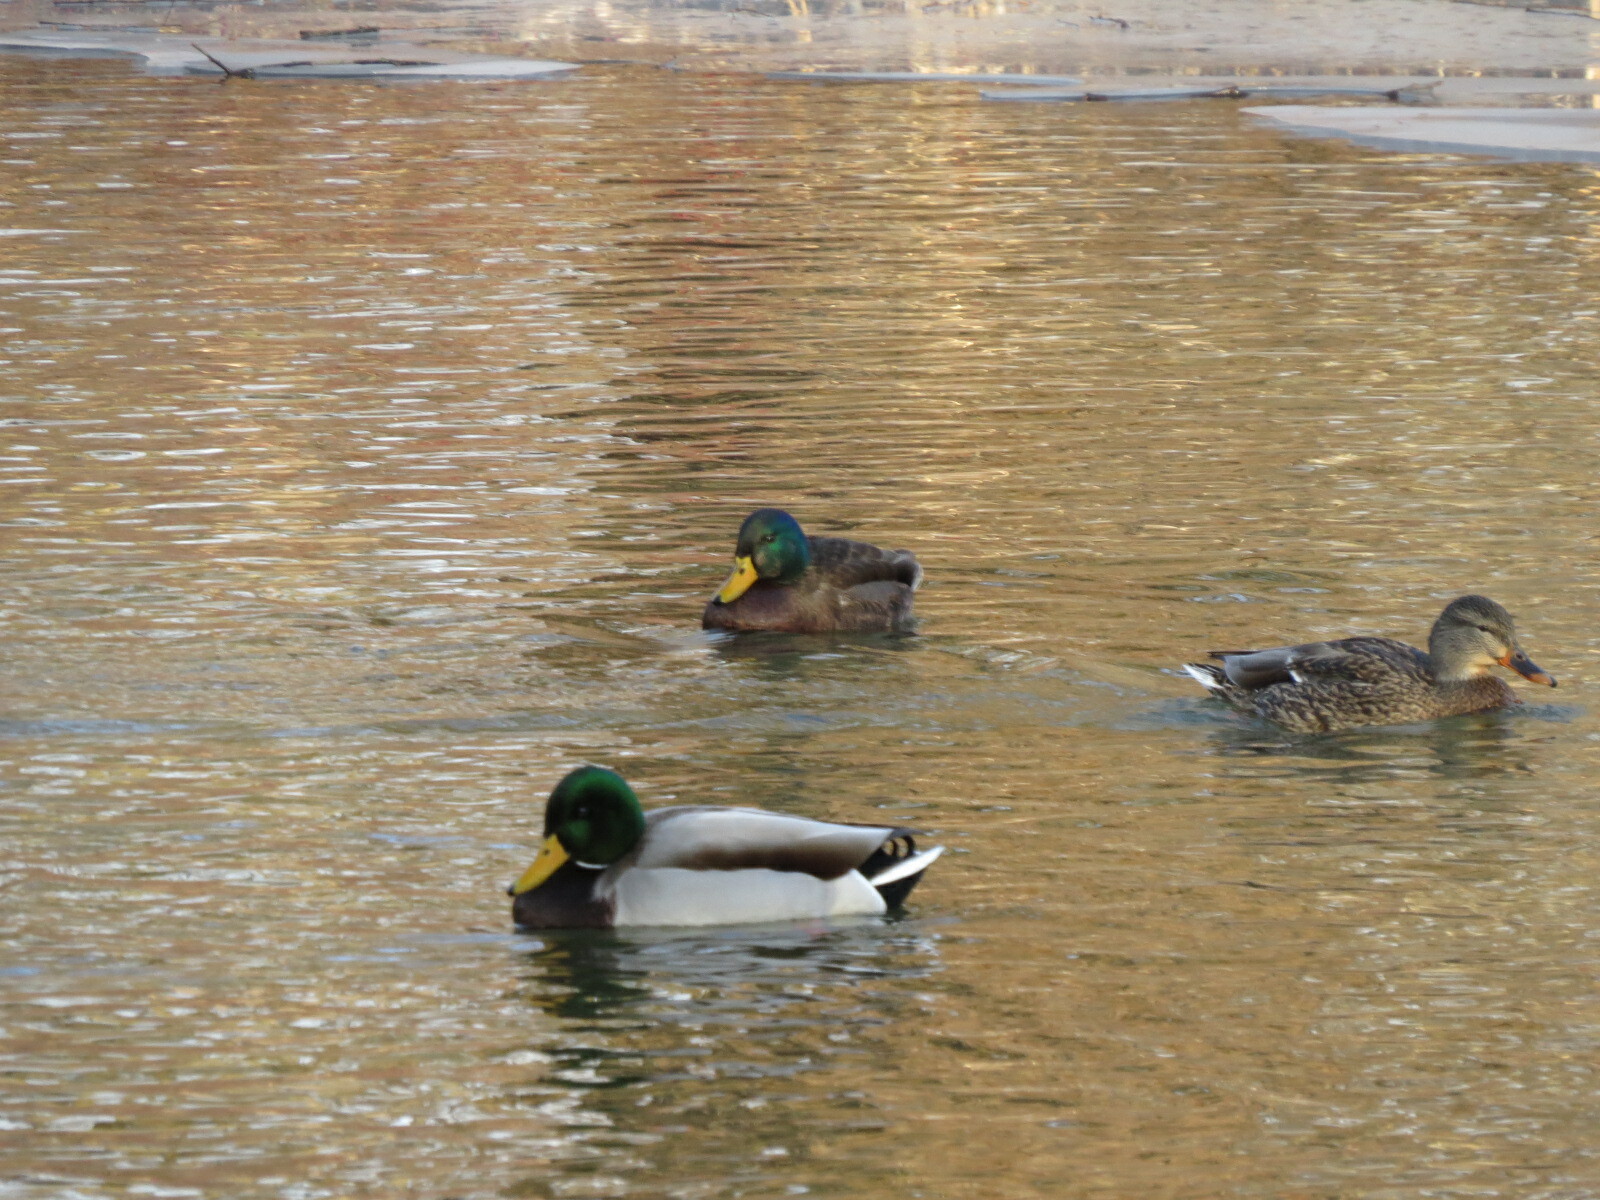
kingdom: Animalia
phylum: Chordata
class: Aves
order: Anseriformes
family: Anatidae
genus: Anas
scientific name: Anas platyrhynchos
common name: Mallard
